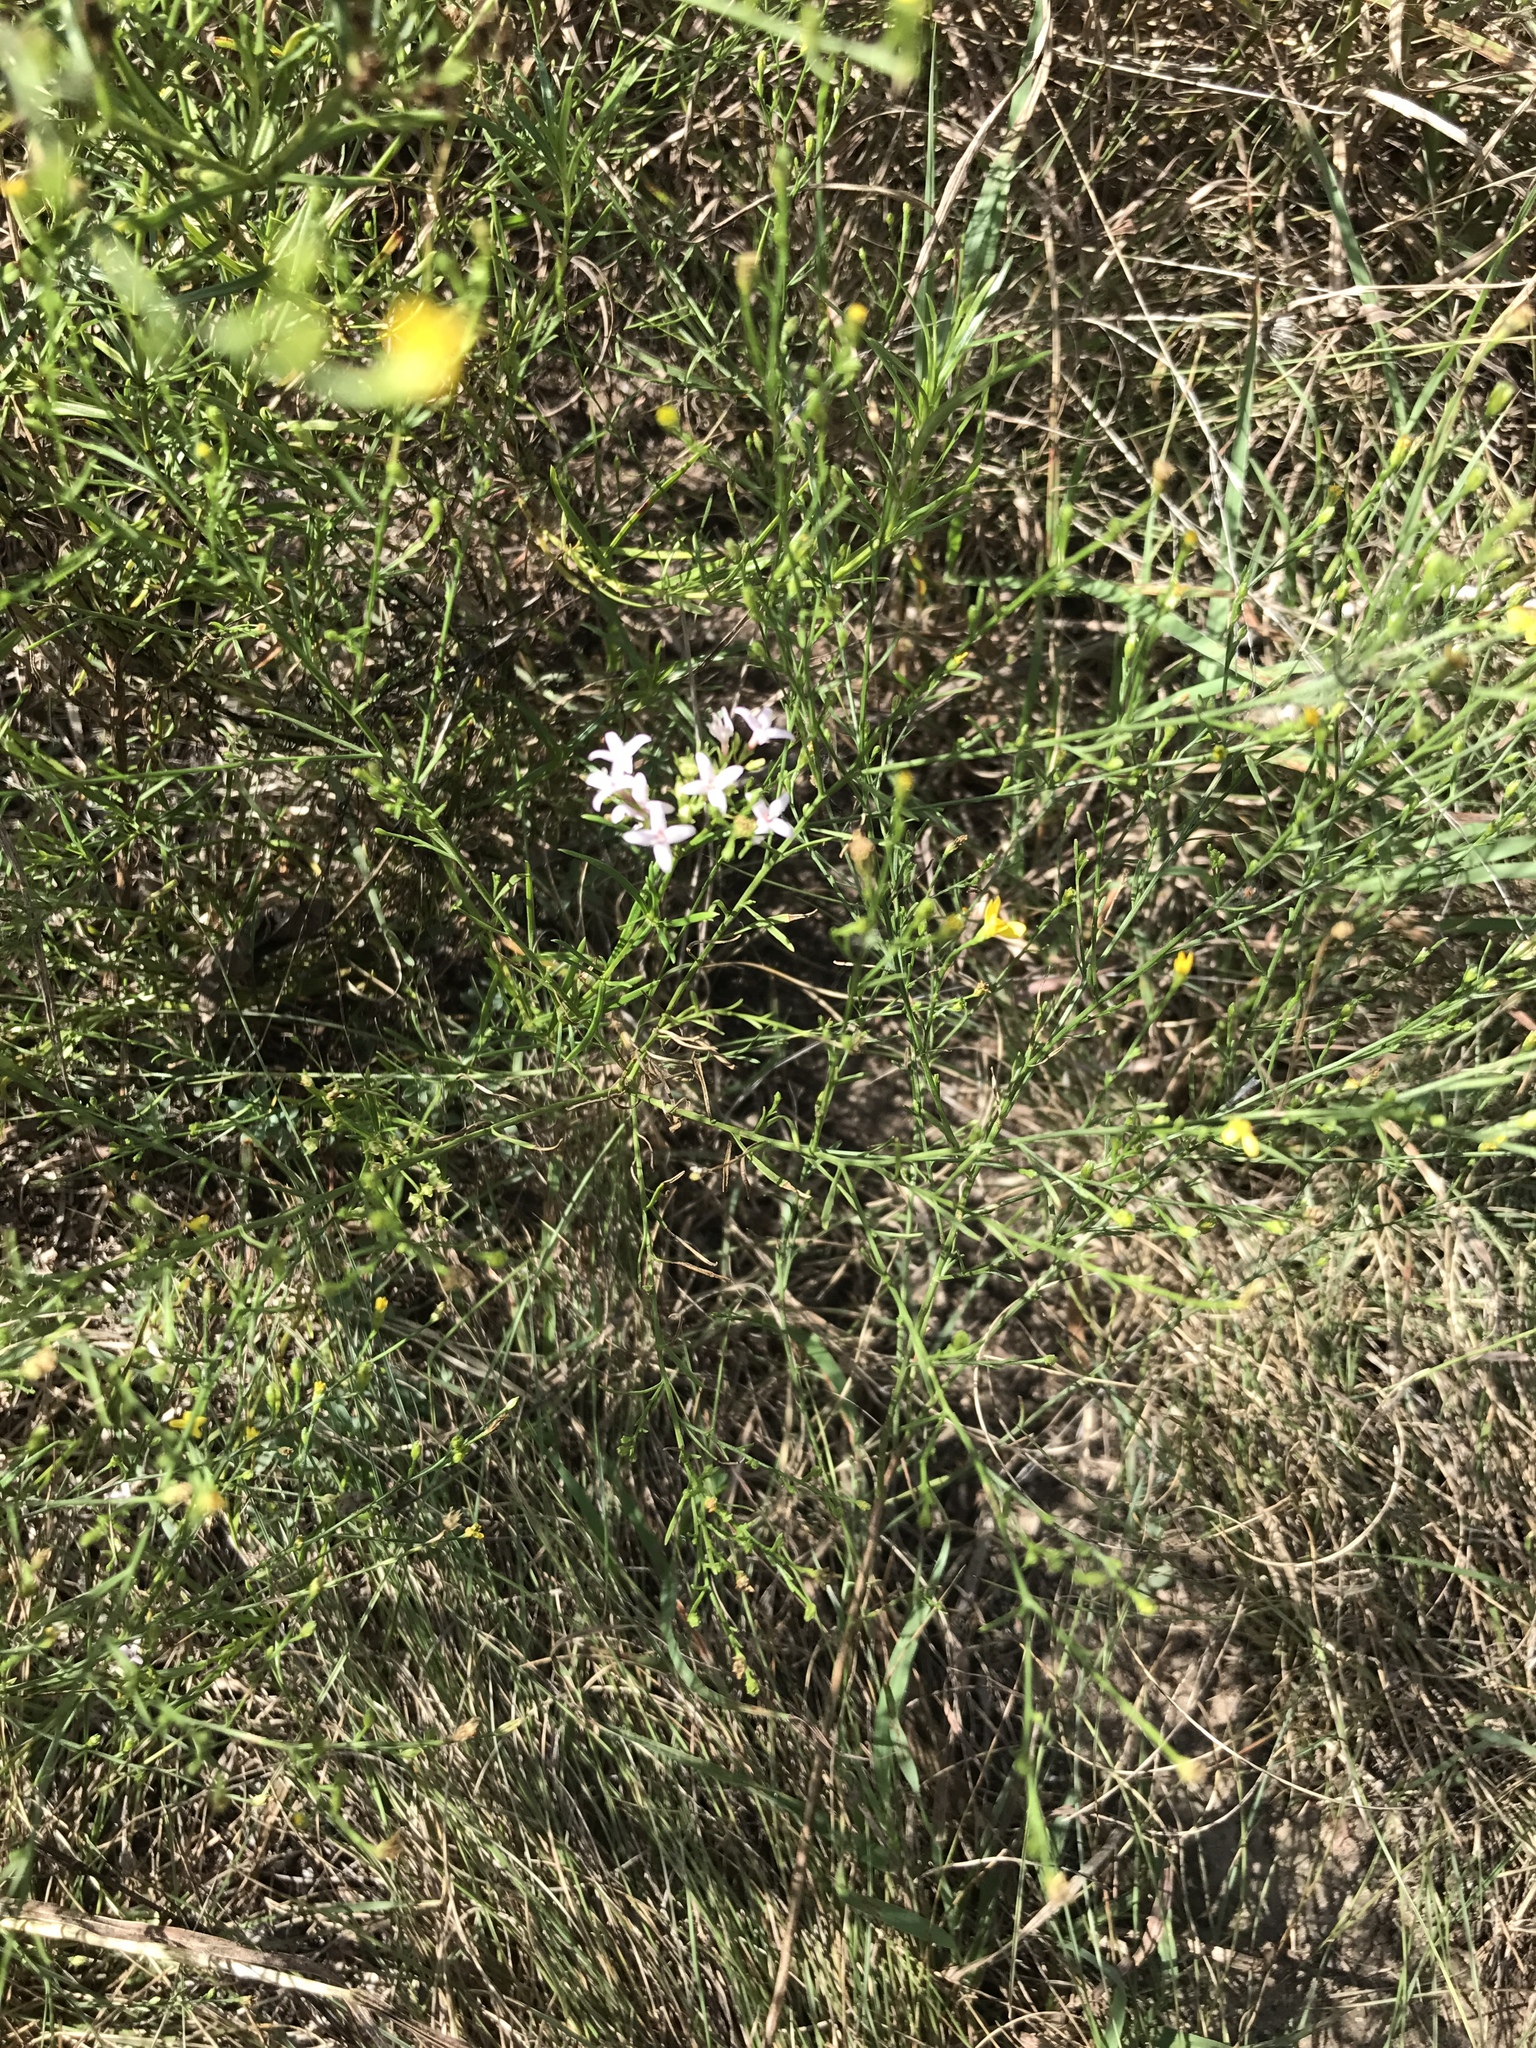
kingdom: Plantae
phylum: Tracheophyta
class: Magnoliopsida
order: Gentianales
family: Rubiaceae
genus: Stenaria
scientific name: Stenaria nigricans
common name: Diamondflowers
